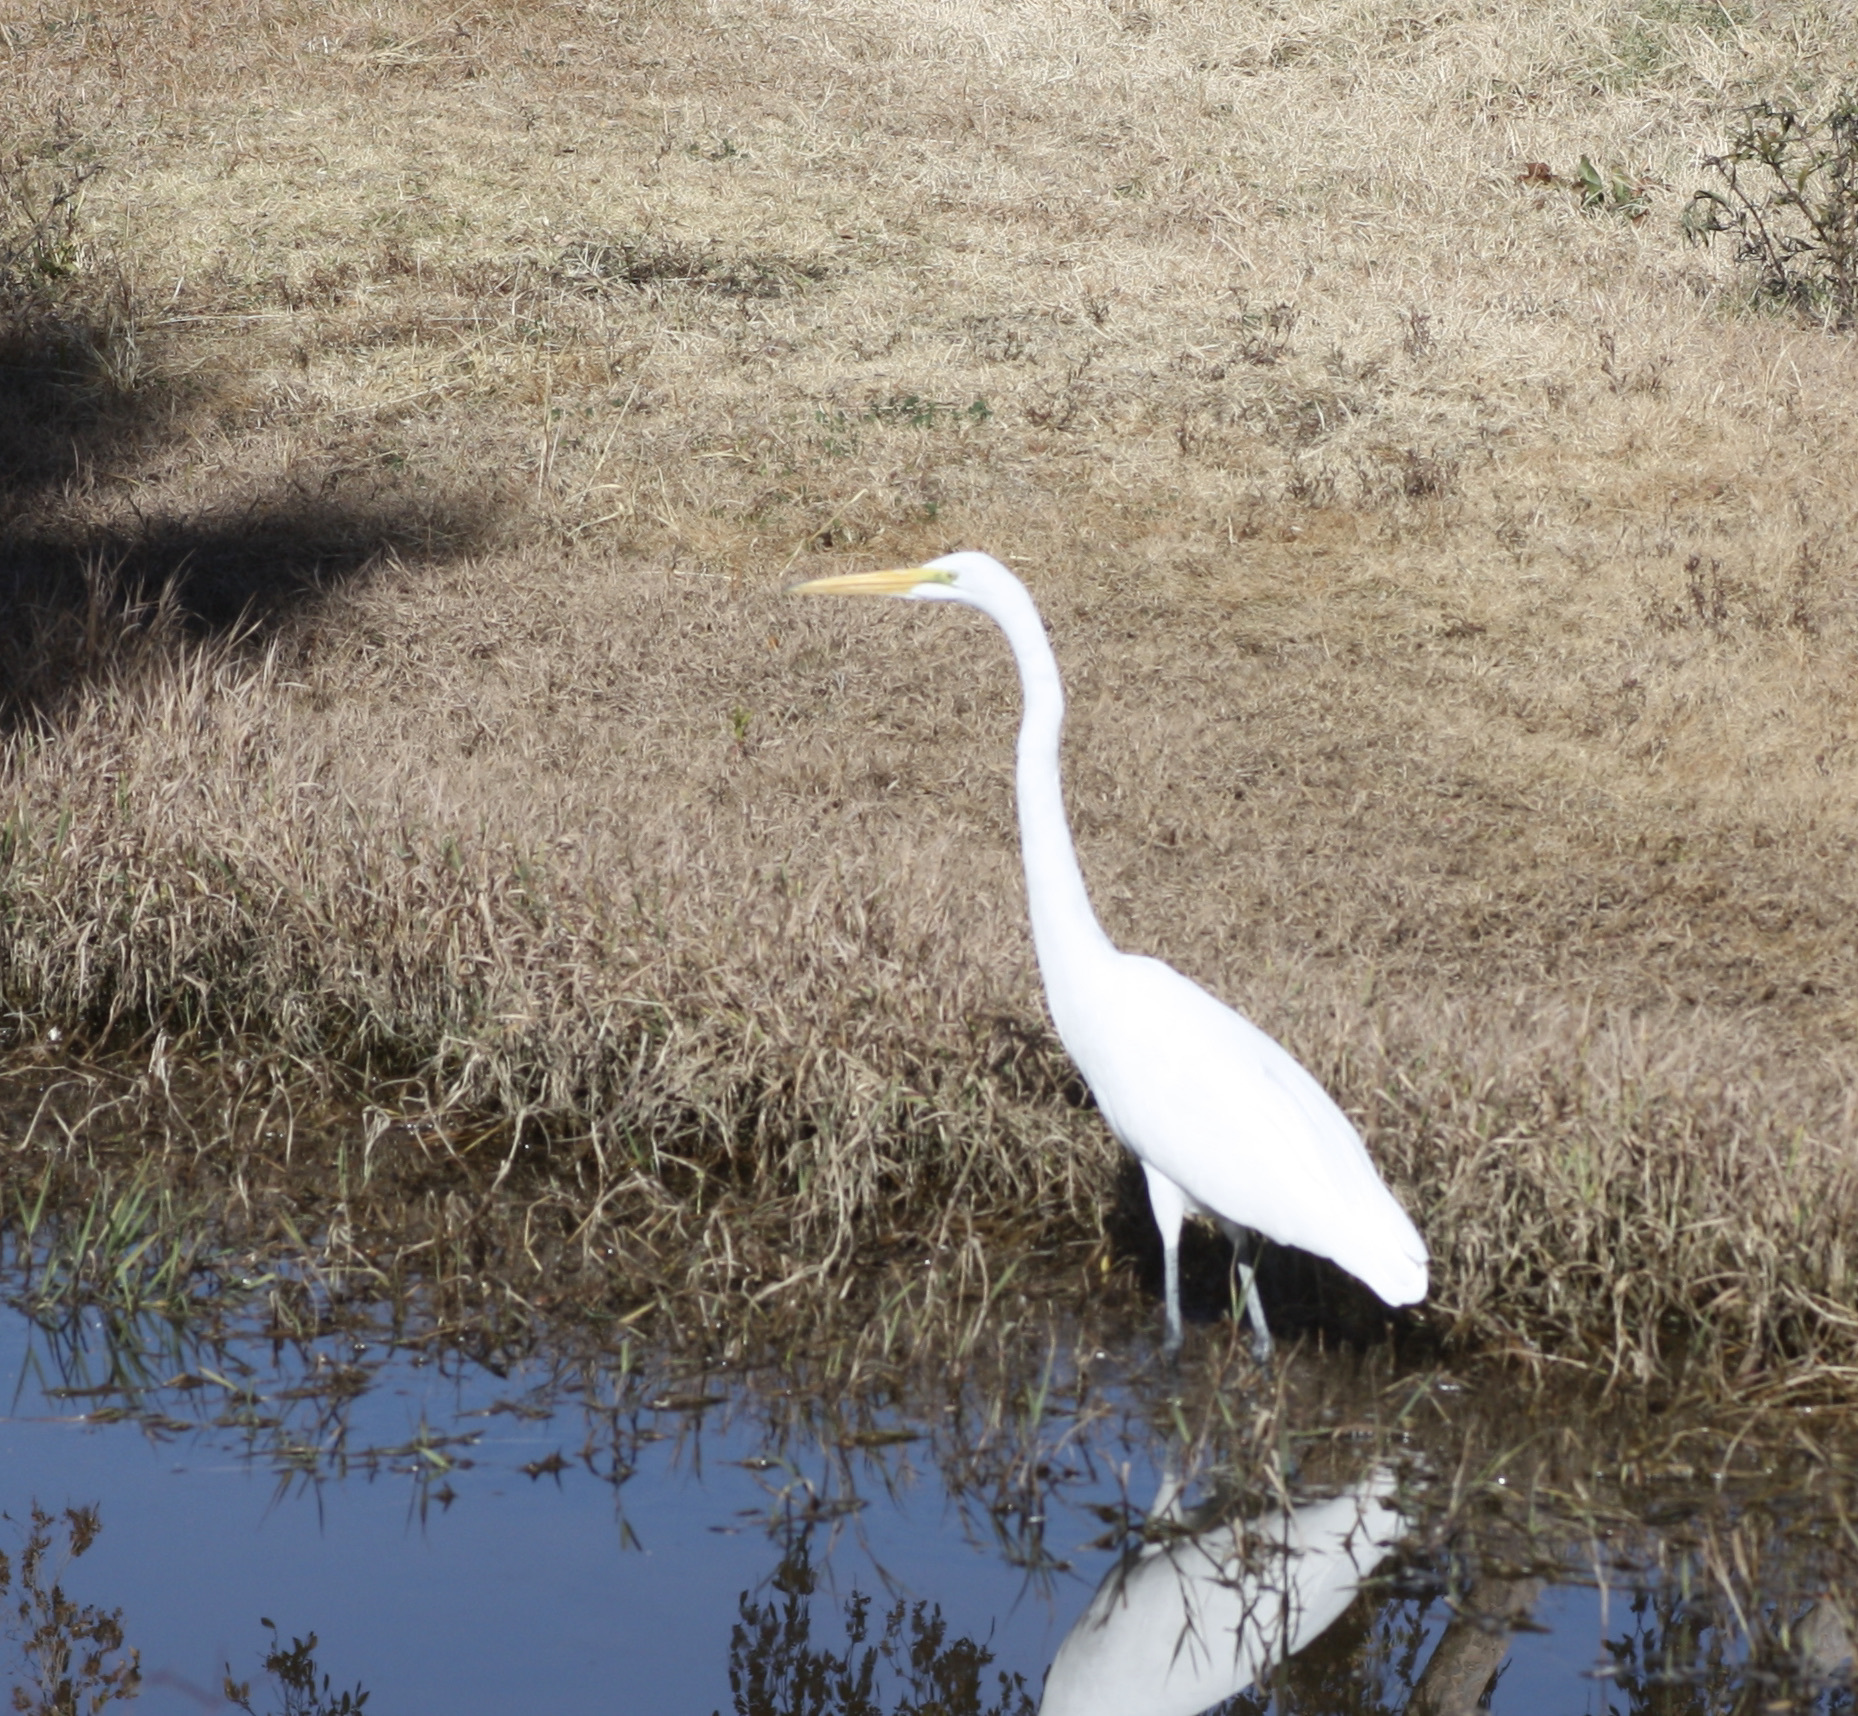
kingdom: Animalia
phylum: Chordata
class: Aves
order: Pelecaniformes
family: Ardeidae
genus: Ardea
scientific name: Ardea alba
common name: Great egret
